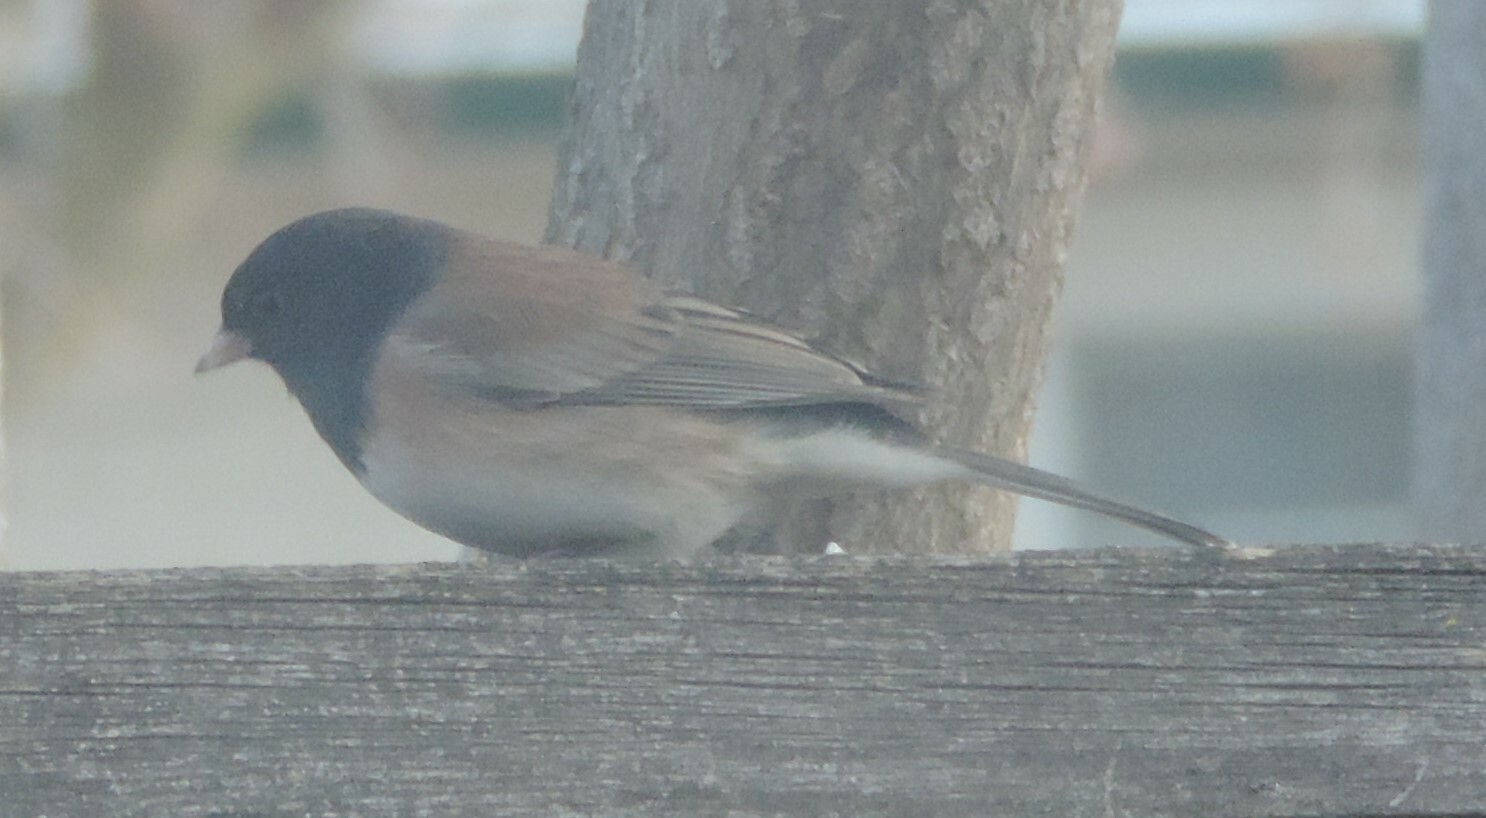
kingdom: Animalia
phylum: Chordata
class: Aves
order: Passeriformes
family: Passerellidae
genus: Junco
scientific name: Junco hyemalis
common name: Dark-eyed junco
